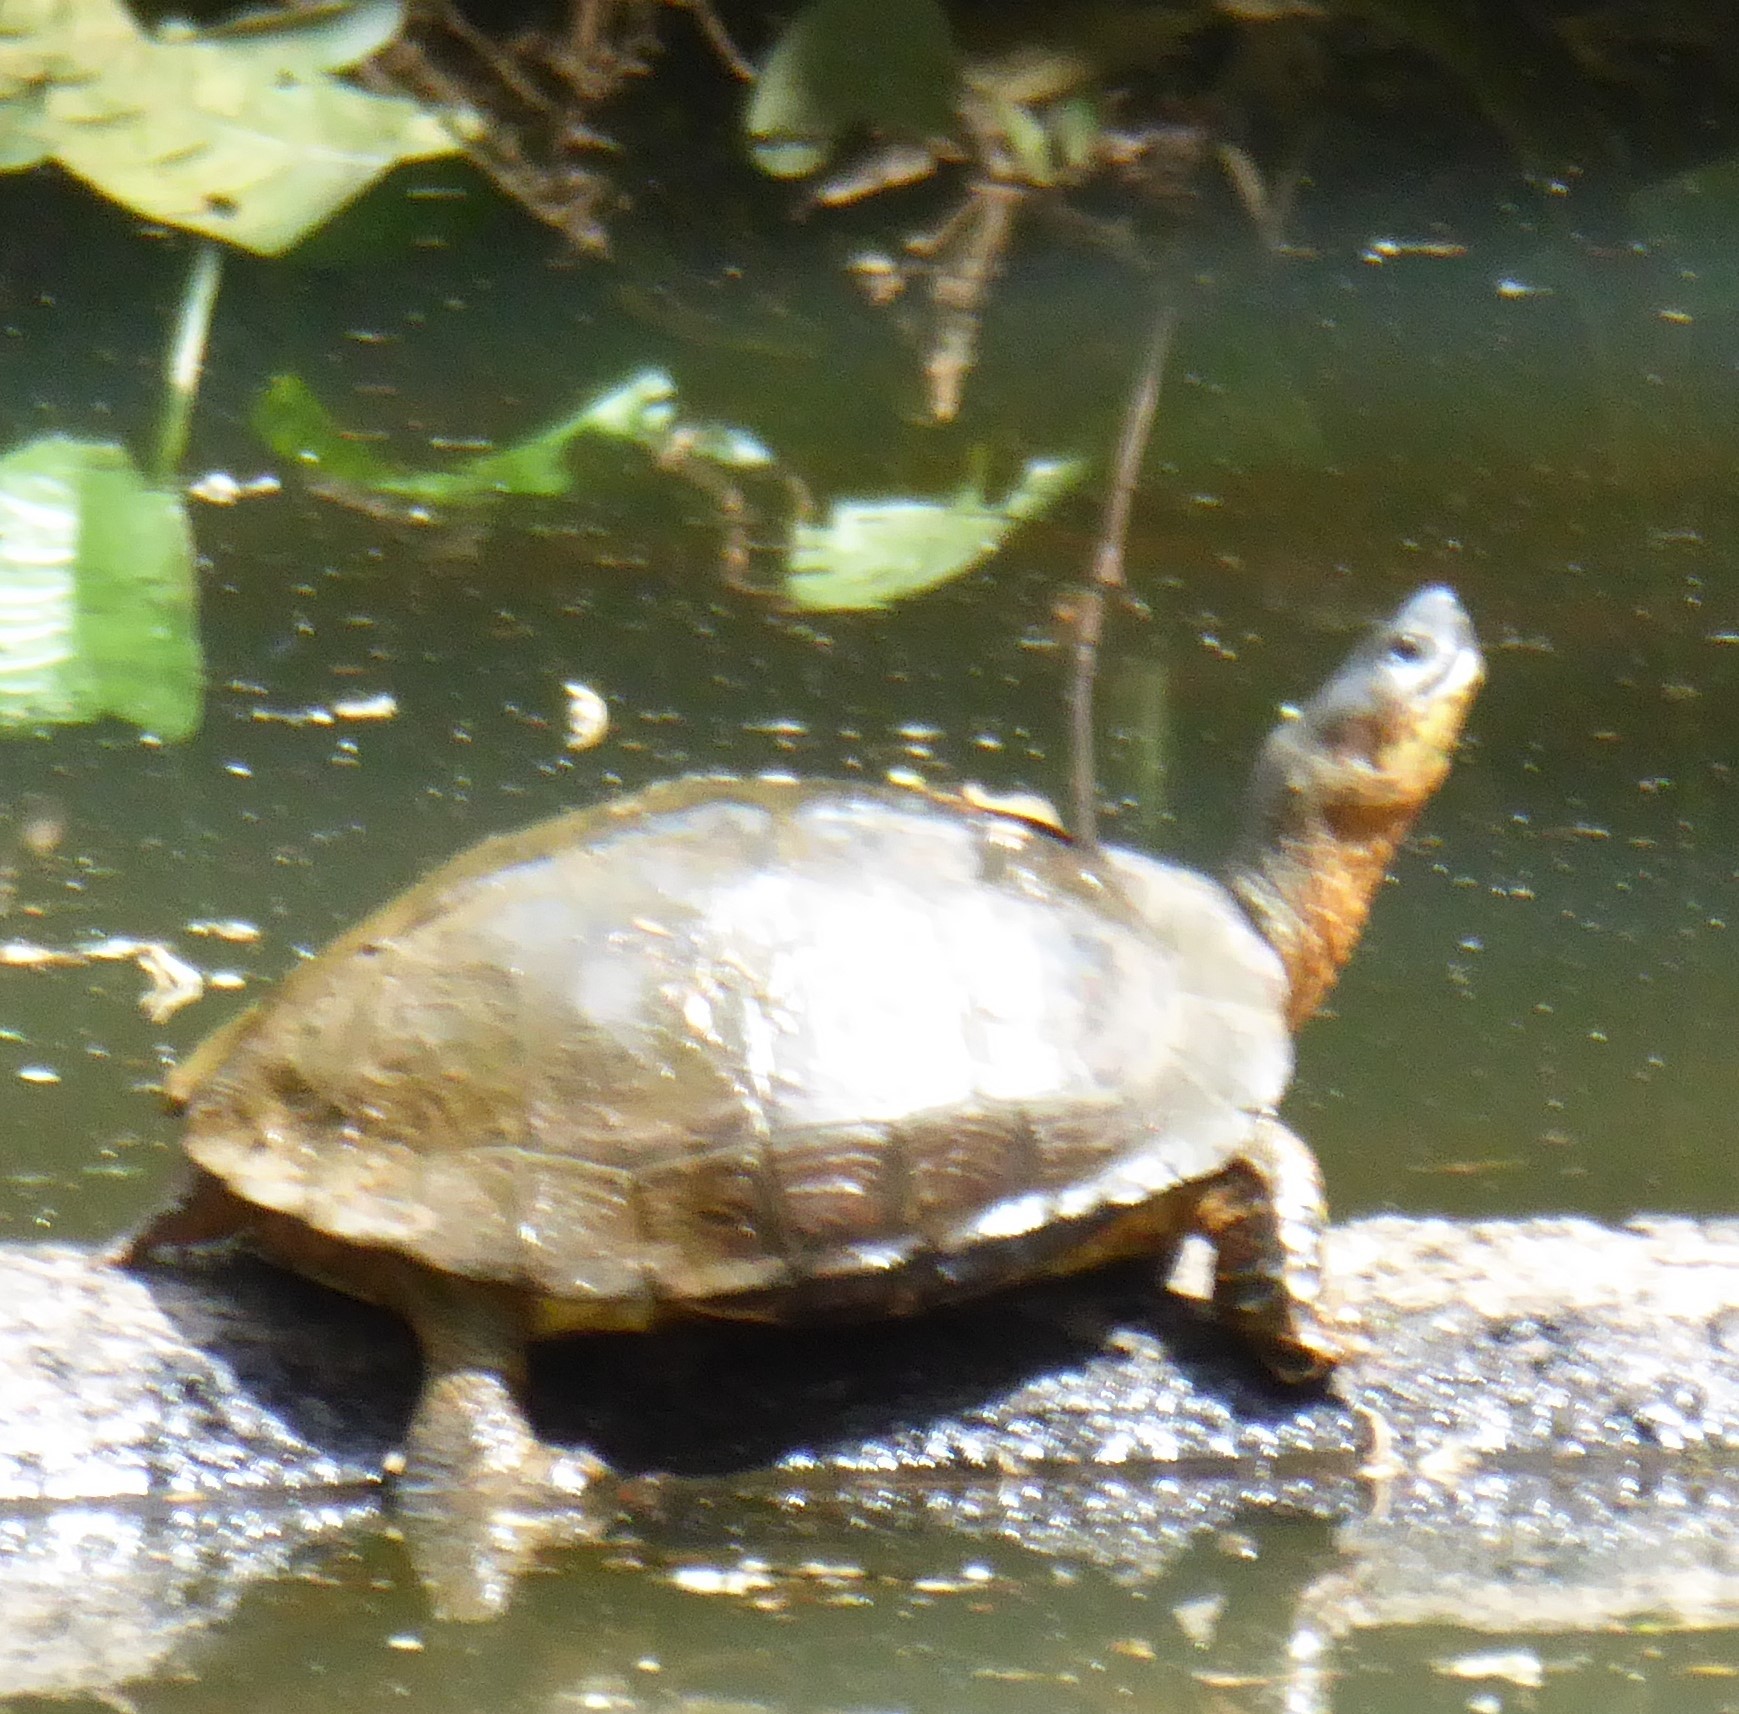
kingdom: Animalia
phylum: Chordata
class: Testudines
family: Geoemydidae
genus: Rhinoclemmys
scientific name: Rhinoclemmys funerea
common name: Black wood turtle
